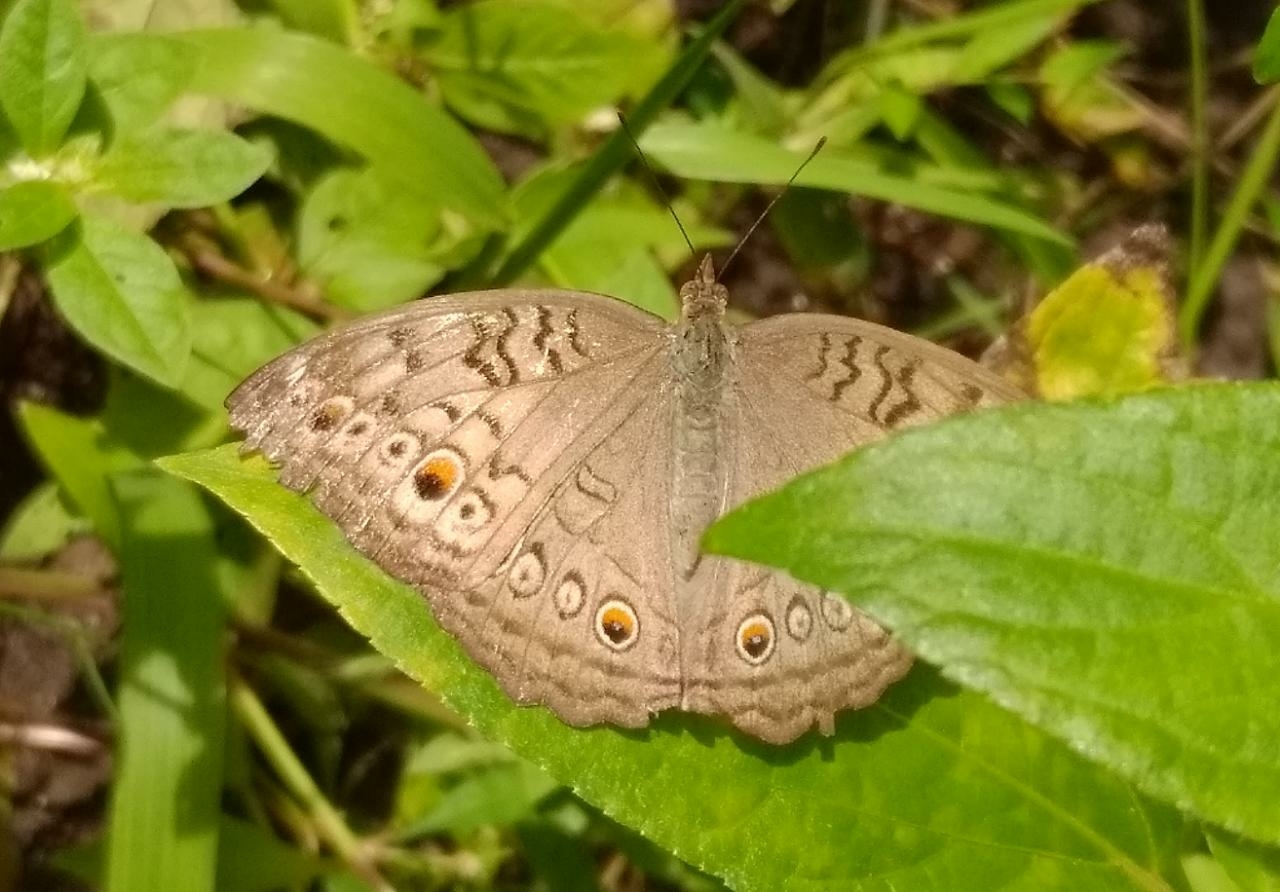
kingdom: Animalia
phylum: Arthropoda
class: Insecta
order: Lepidoptera
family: Nymphalidae
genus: Junonia
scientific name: Junonia atlites
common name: Grey pansy
